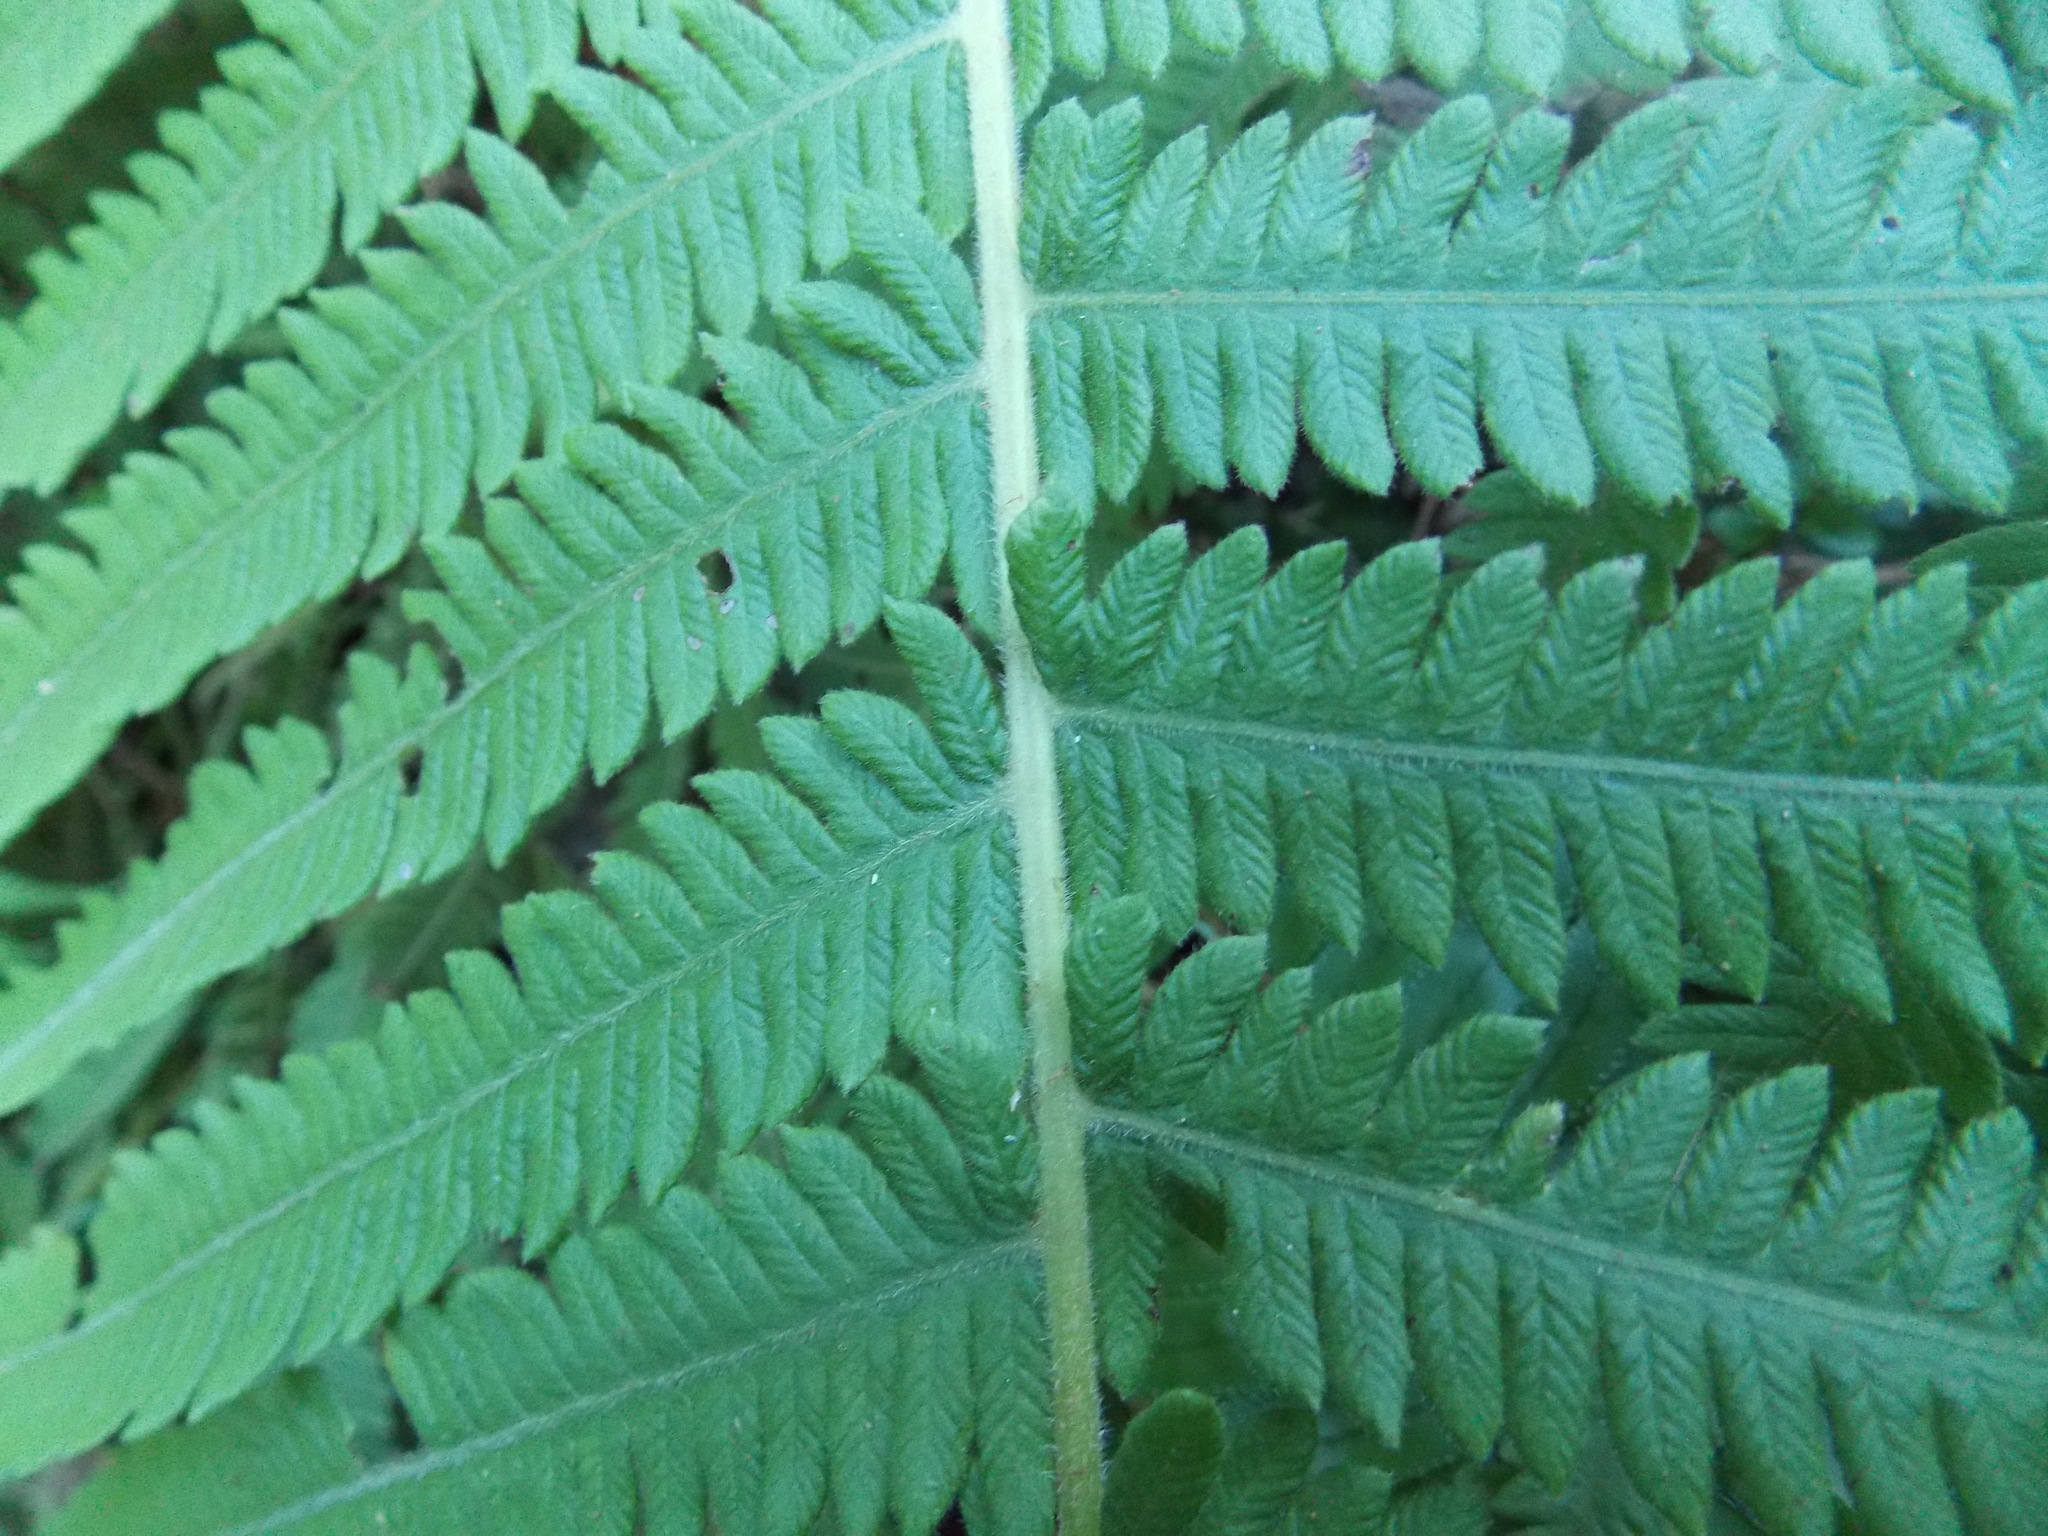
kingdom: Plantae
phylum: Tracheophyta
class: Polypodiopsida
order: Polypodiales
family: Thelypteridaceae
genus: Pelazoneuron
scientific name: Pelazoneuron kunthii
